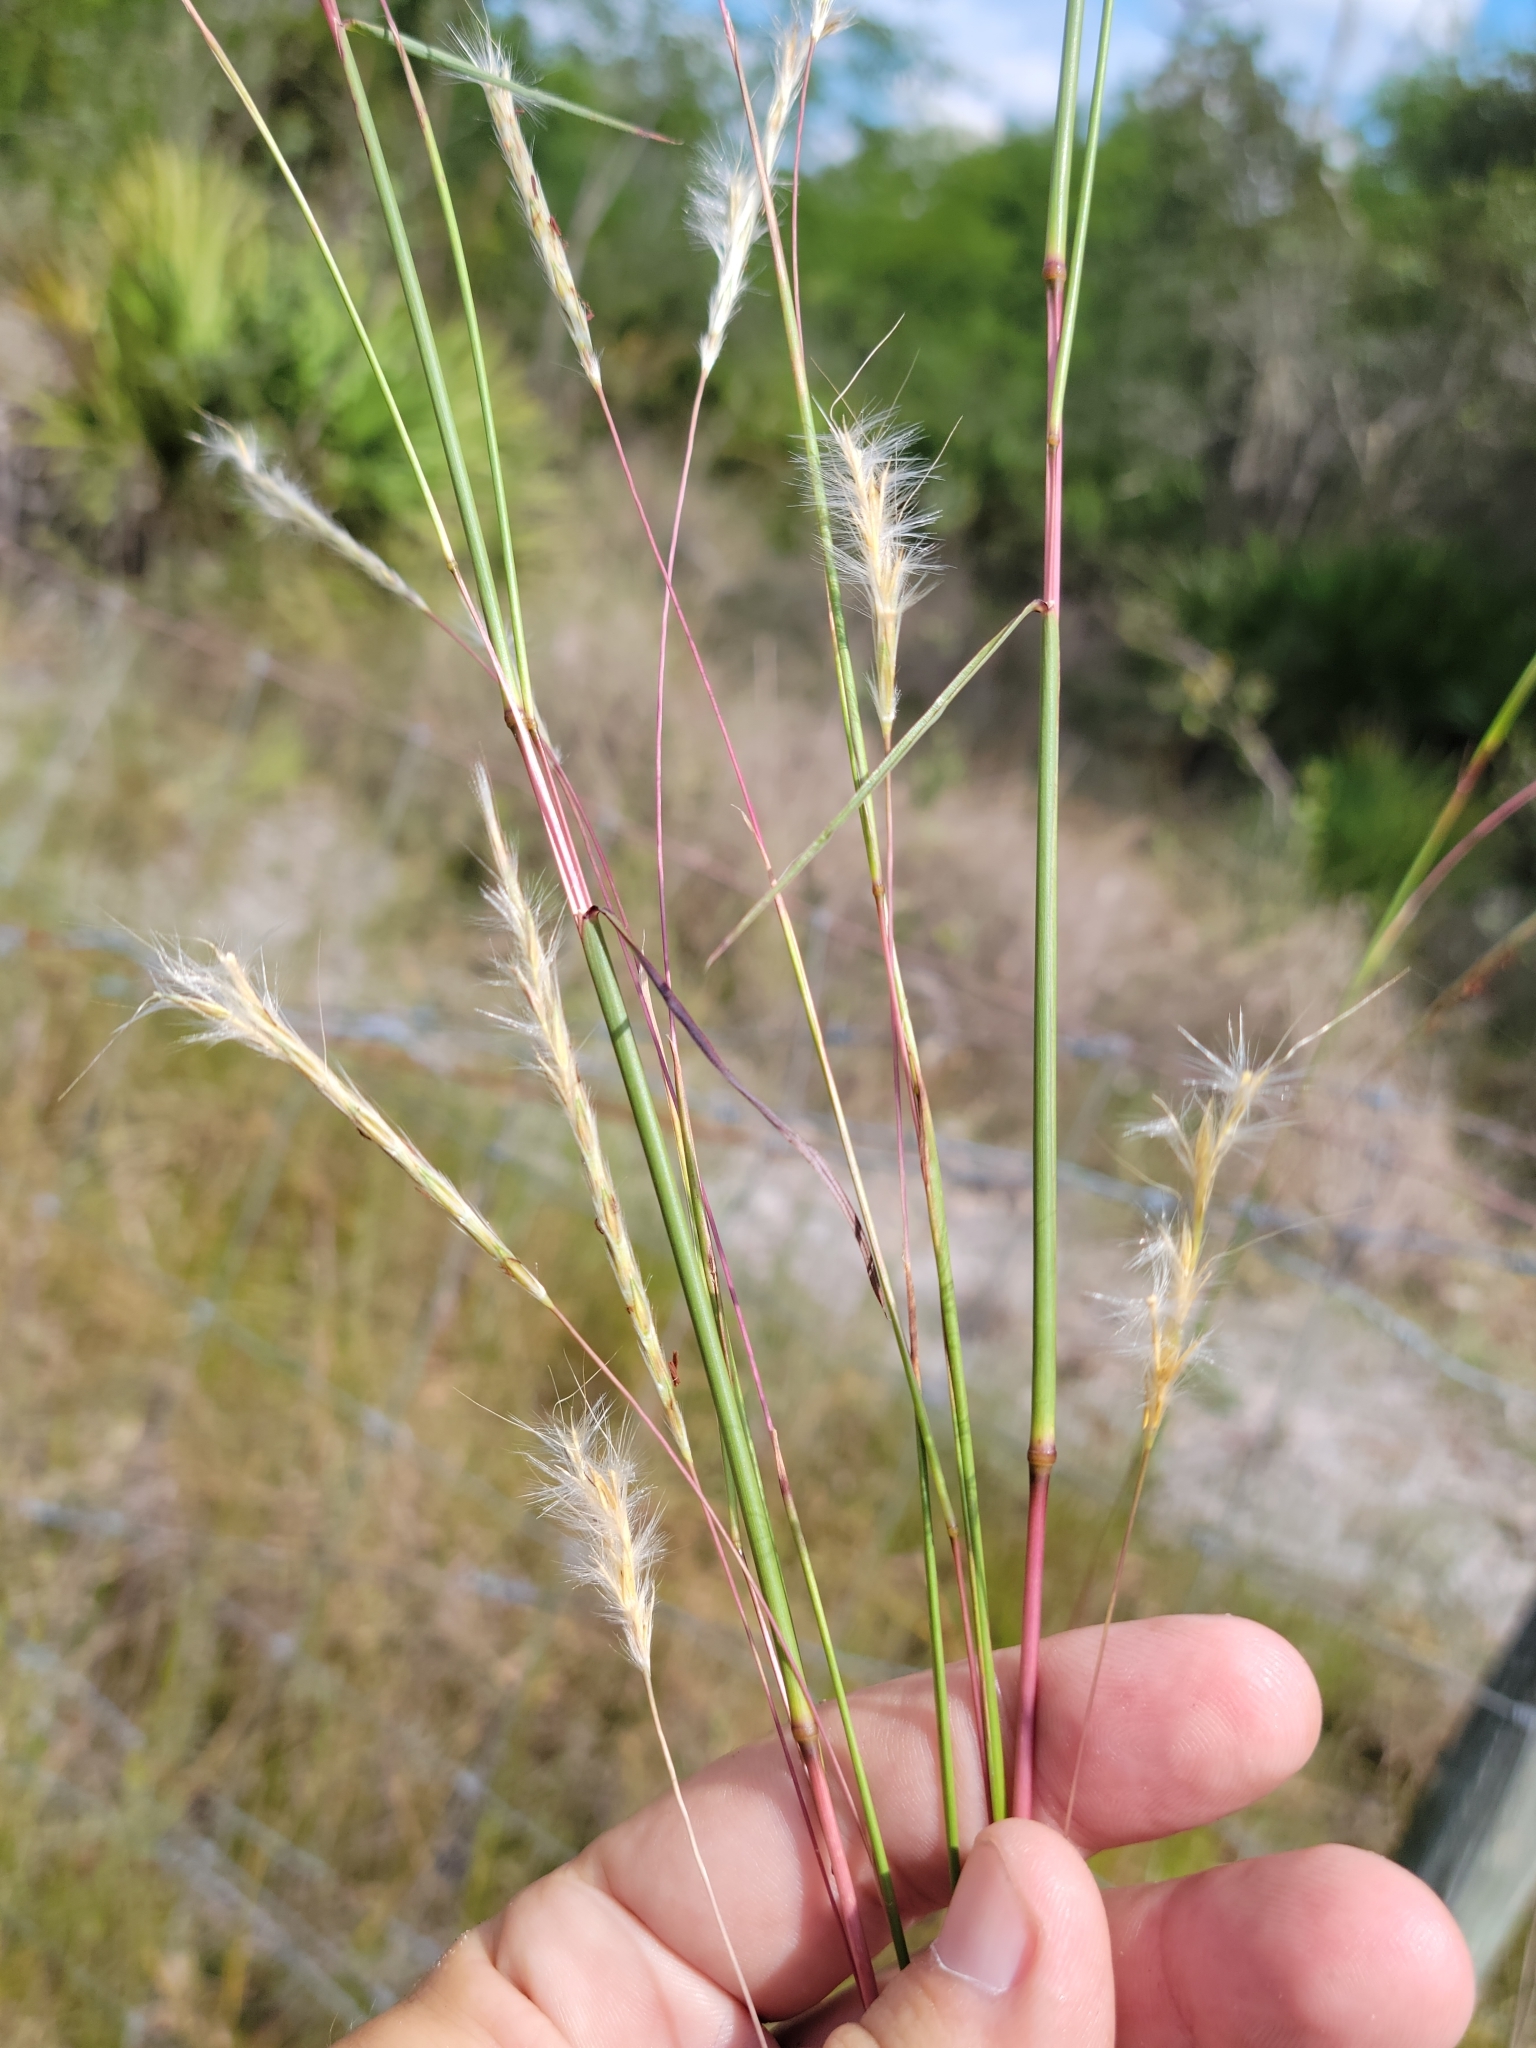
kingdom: Plantae
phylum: Tracheophyta
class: Liliopsida
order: Poales
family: Poaceae
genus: Andropogon
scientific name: Andropogon cabanisii
